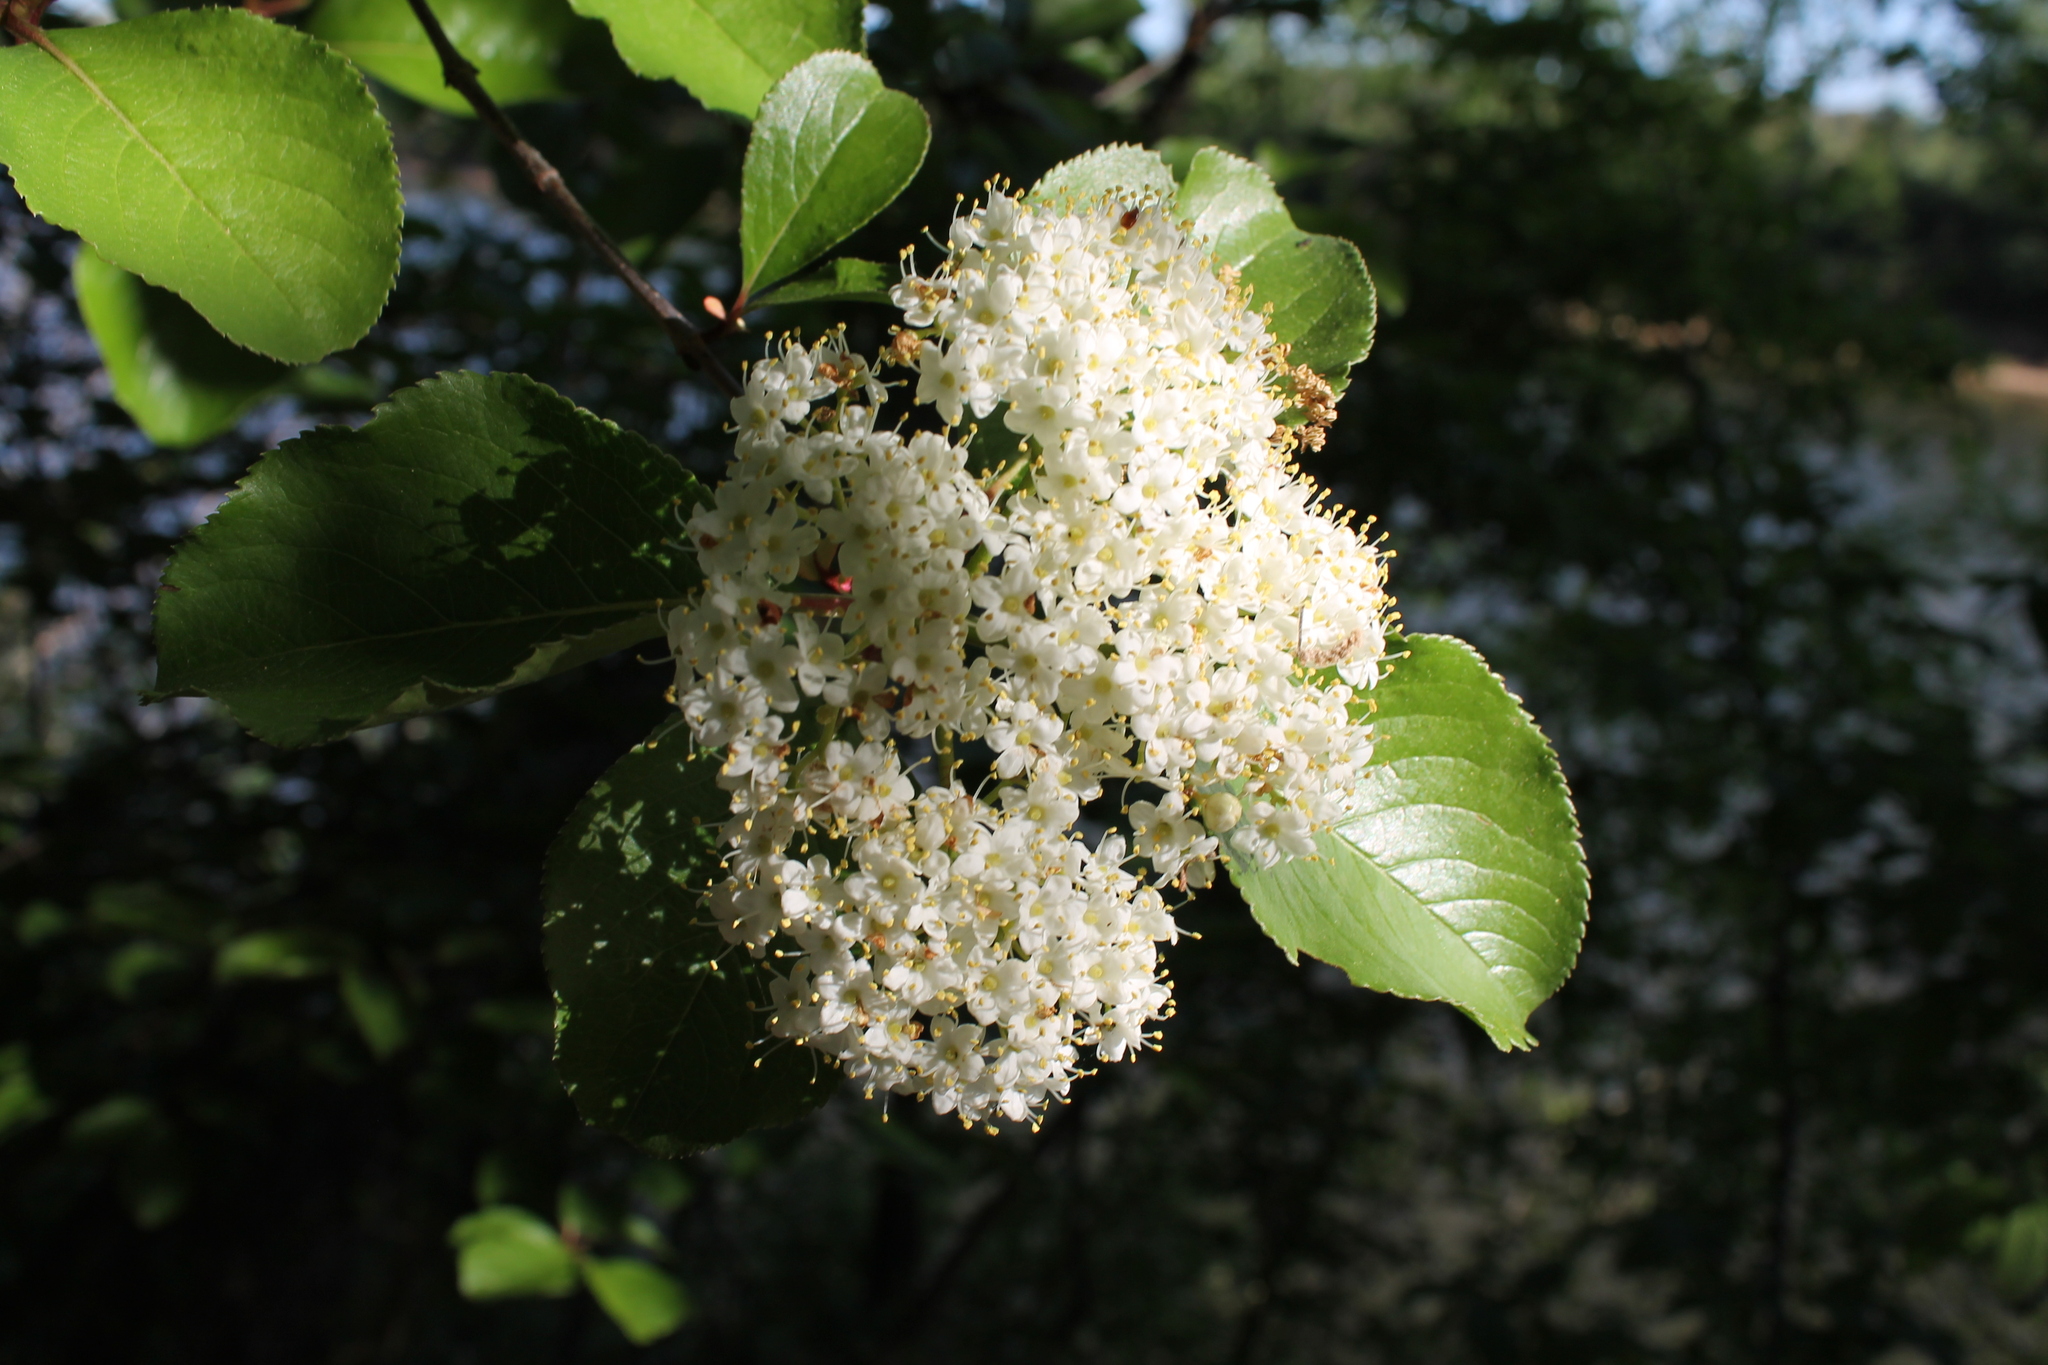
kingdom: Plantae
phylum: Tracheophyta
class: Magnoliopsida
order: Dipsacales
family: Viburnaceae
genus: Viburnum
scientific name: Viburnum rufidulum
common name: Blue haw
